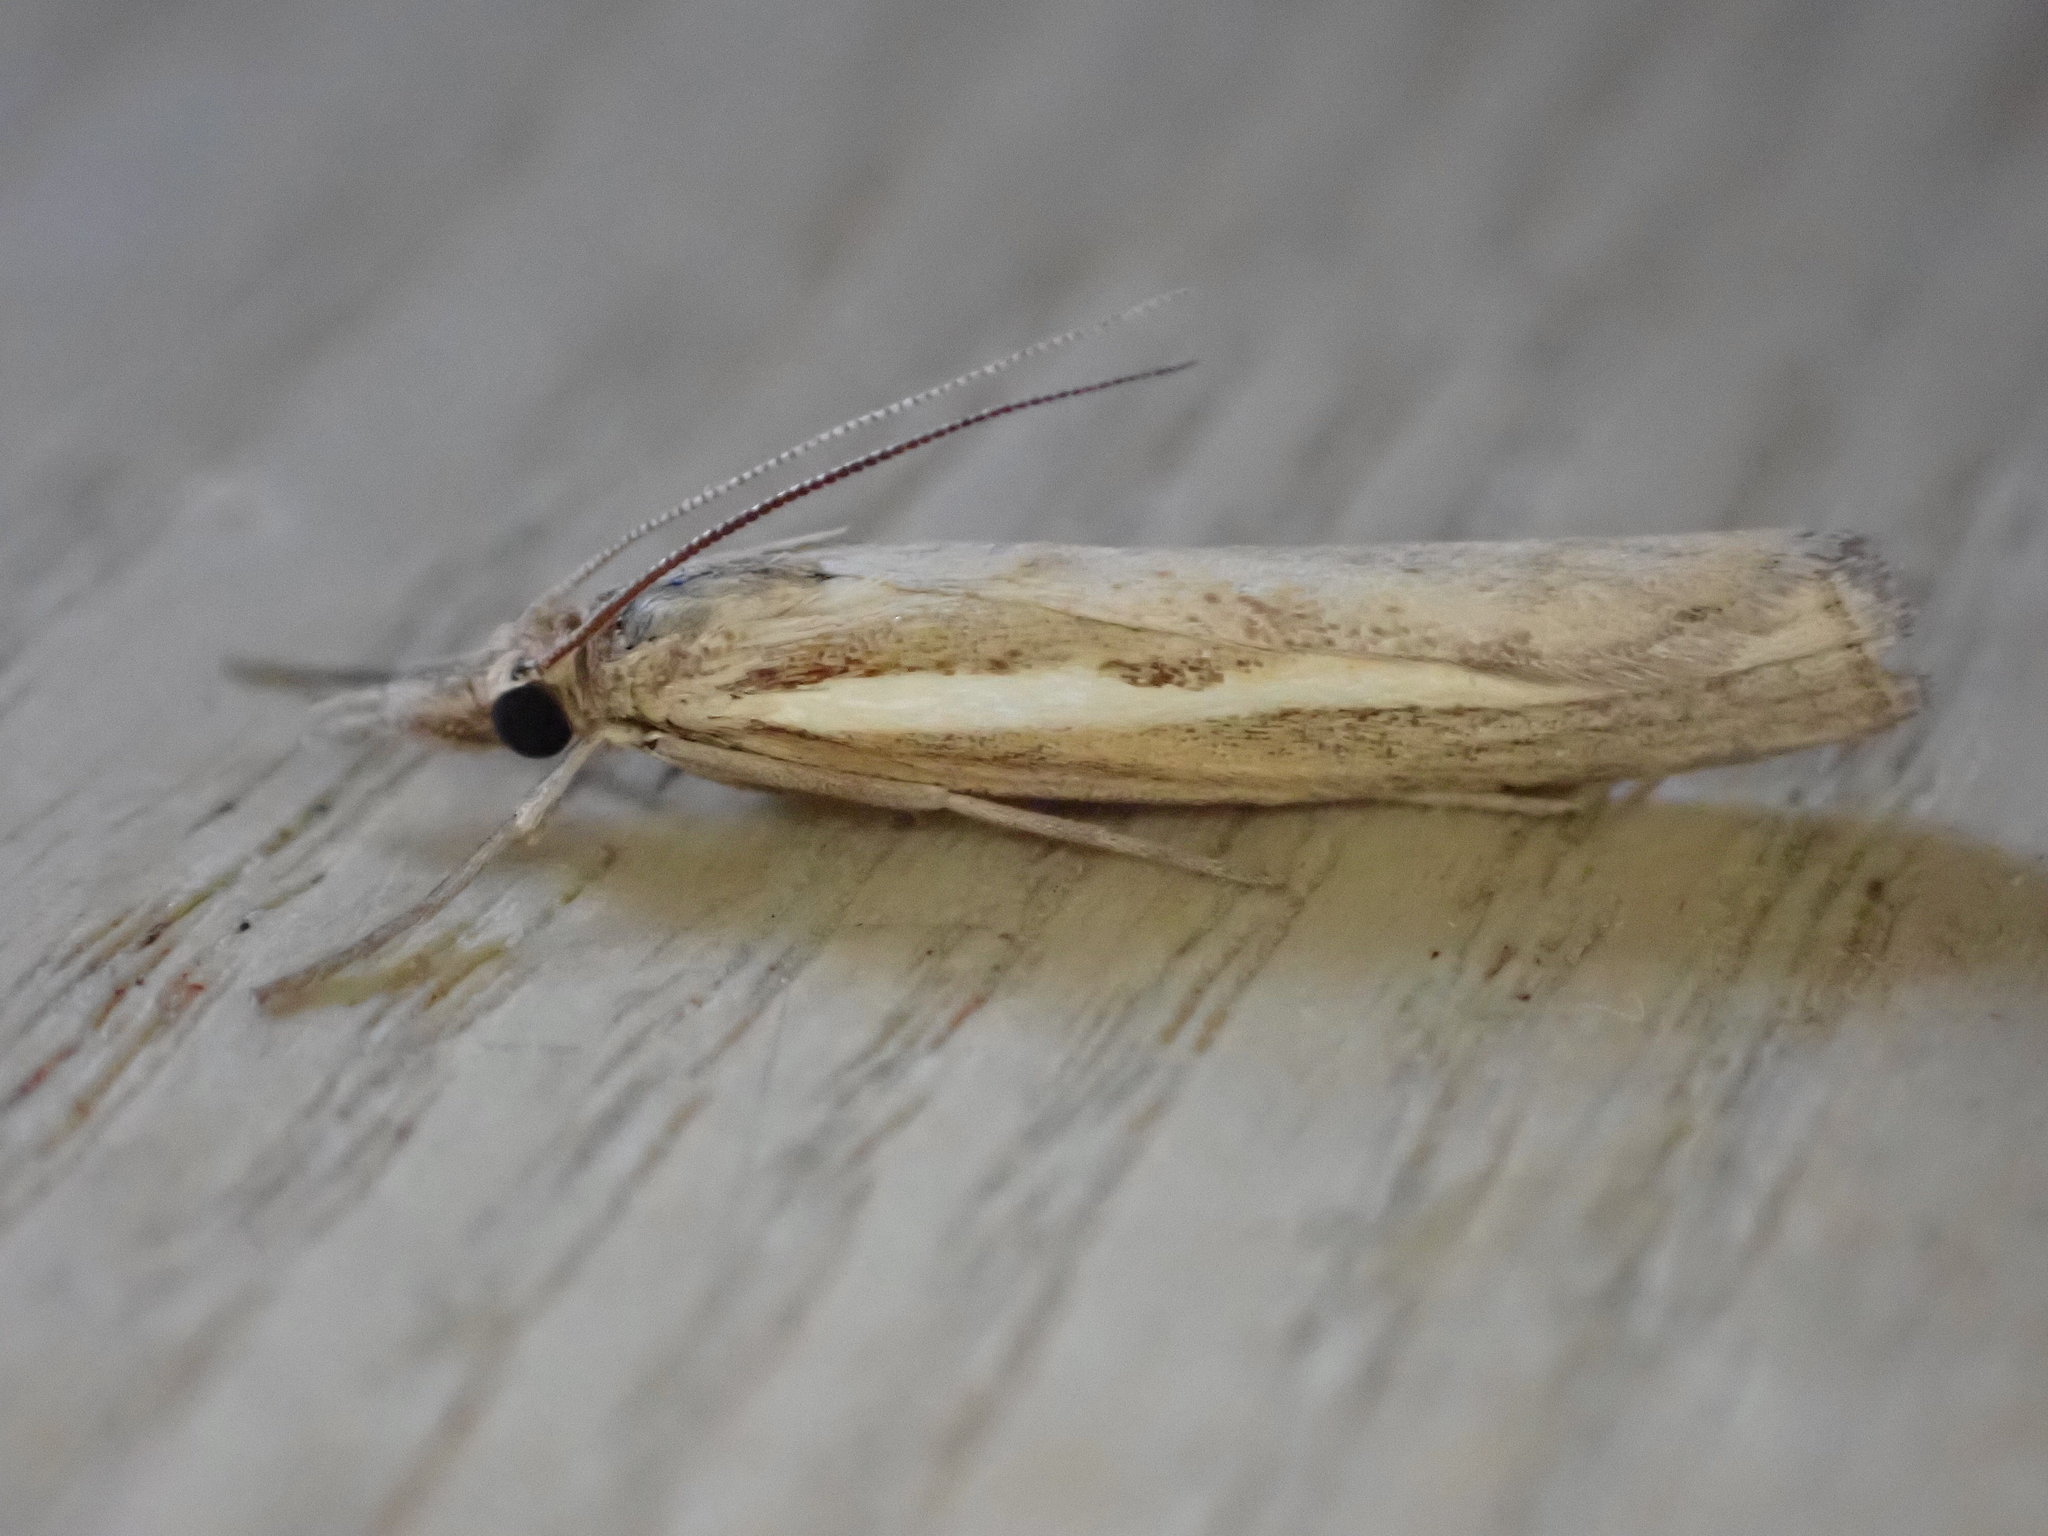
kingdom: Animalia
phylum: Arthropoda
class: Insecta
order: Lepidoptera
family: Crambidae
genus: Agriphila
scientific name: Agriphila tristellus
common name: Common grass-veneer
